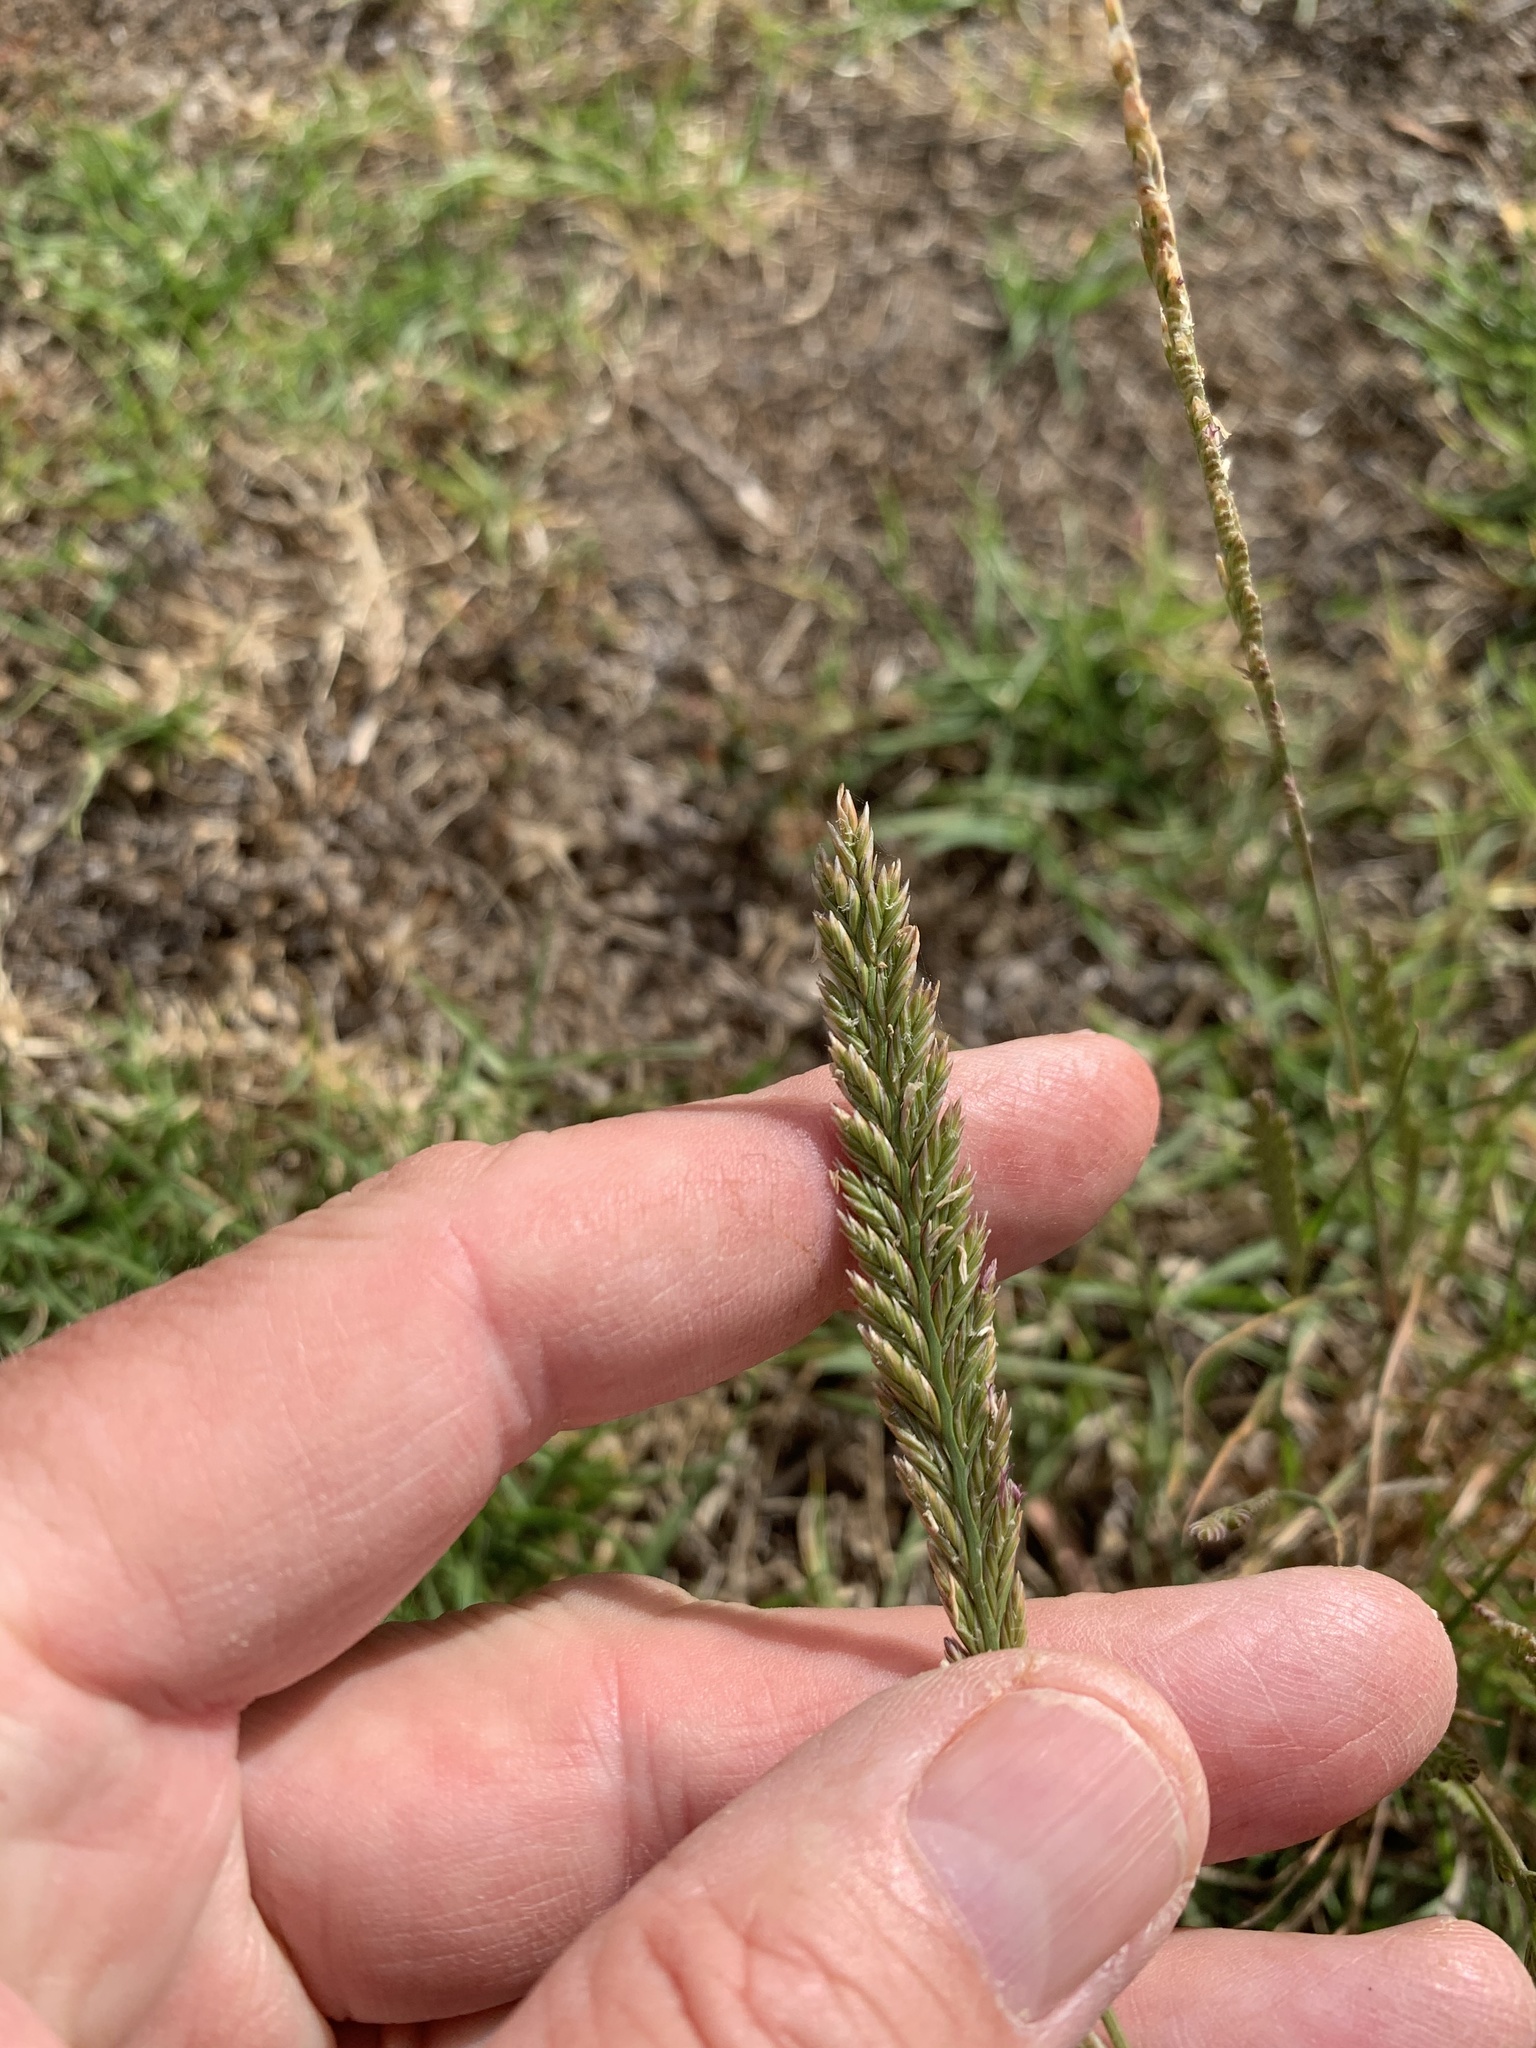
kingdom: Plantae
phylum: Tracheophyta
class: Liliopsida
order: Poales
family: Poaceae
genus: Lolium
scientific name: Lolium perenne
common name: Perennial ryegrass
